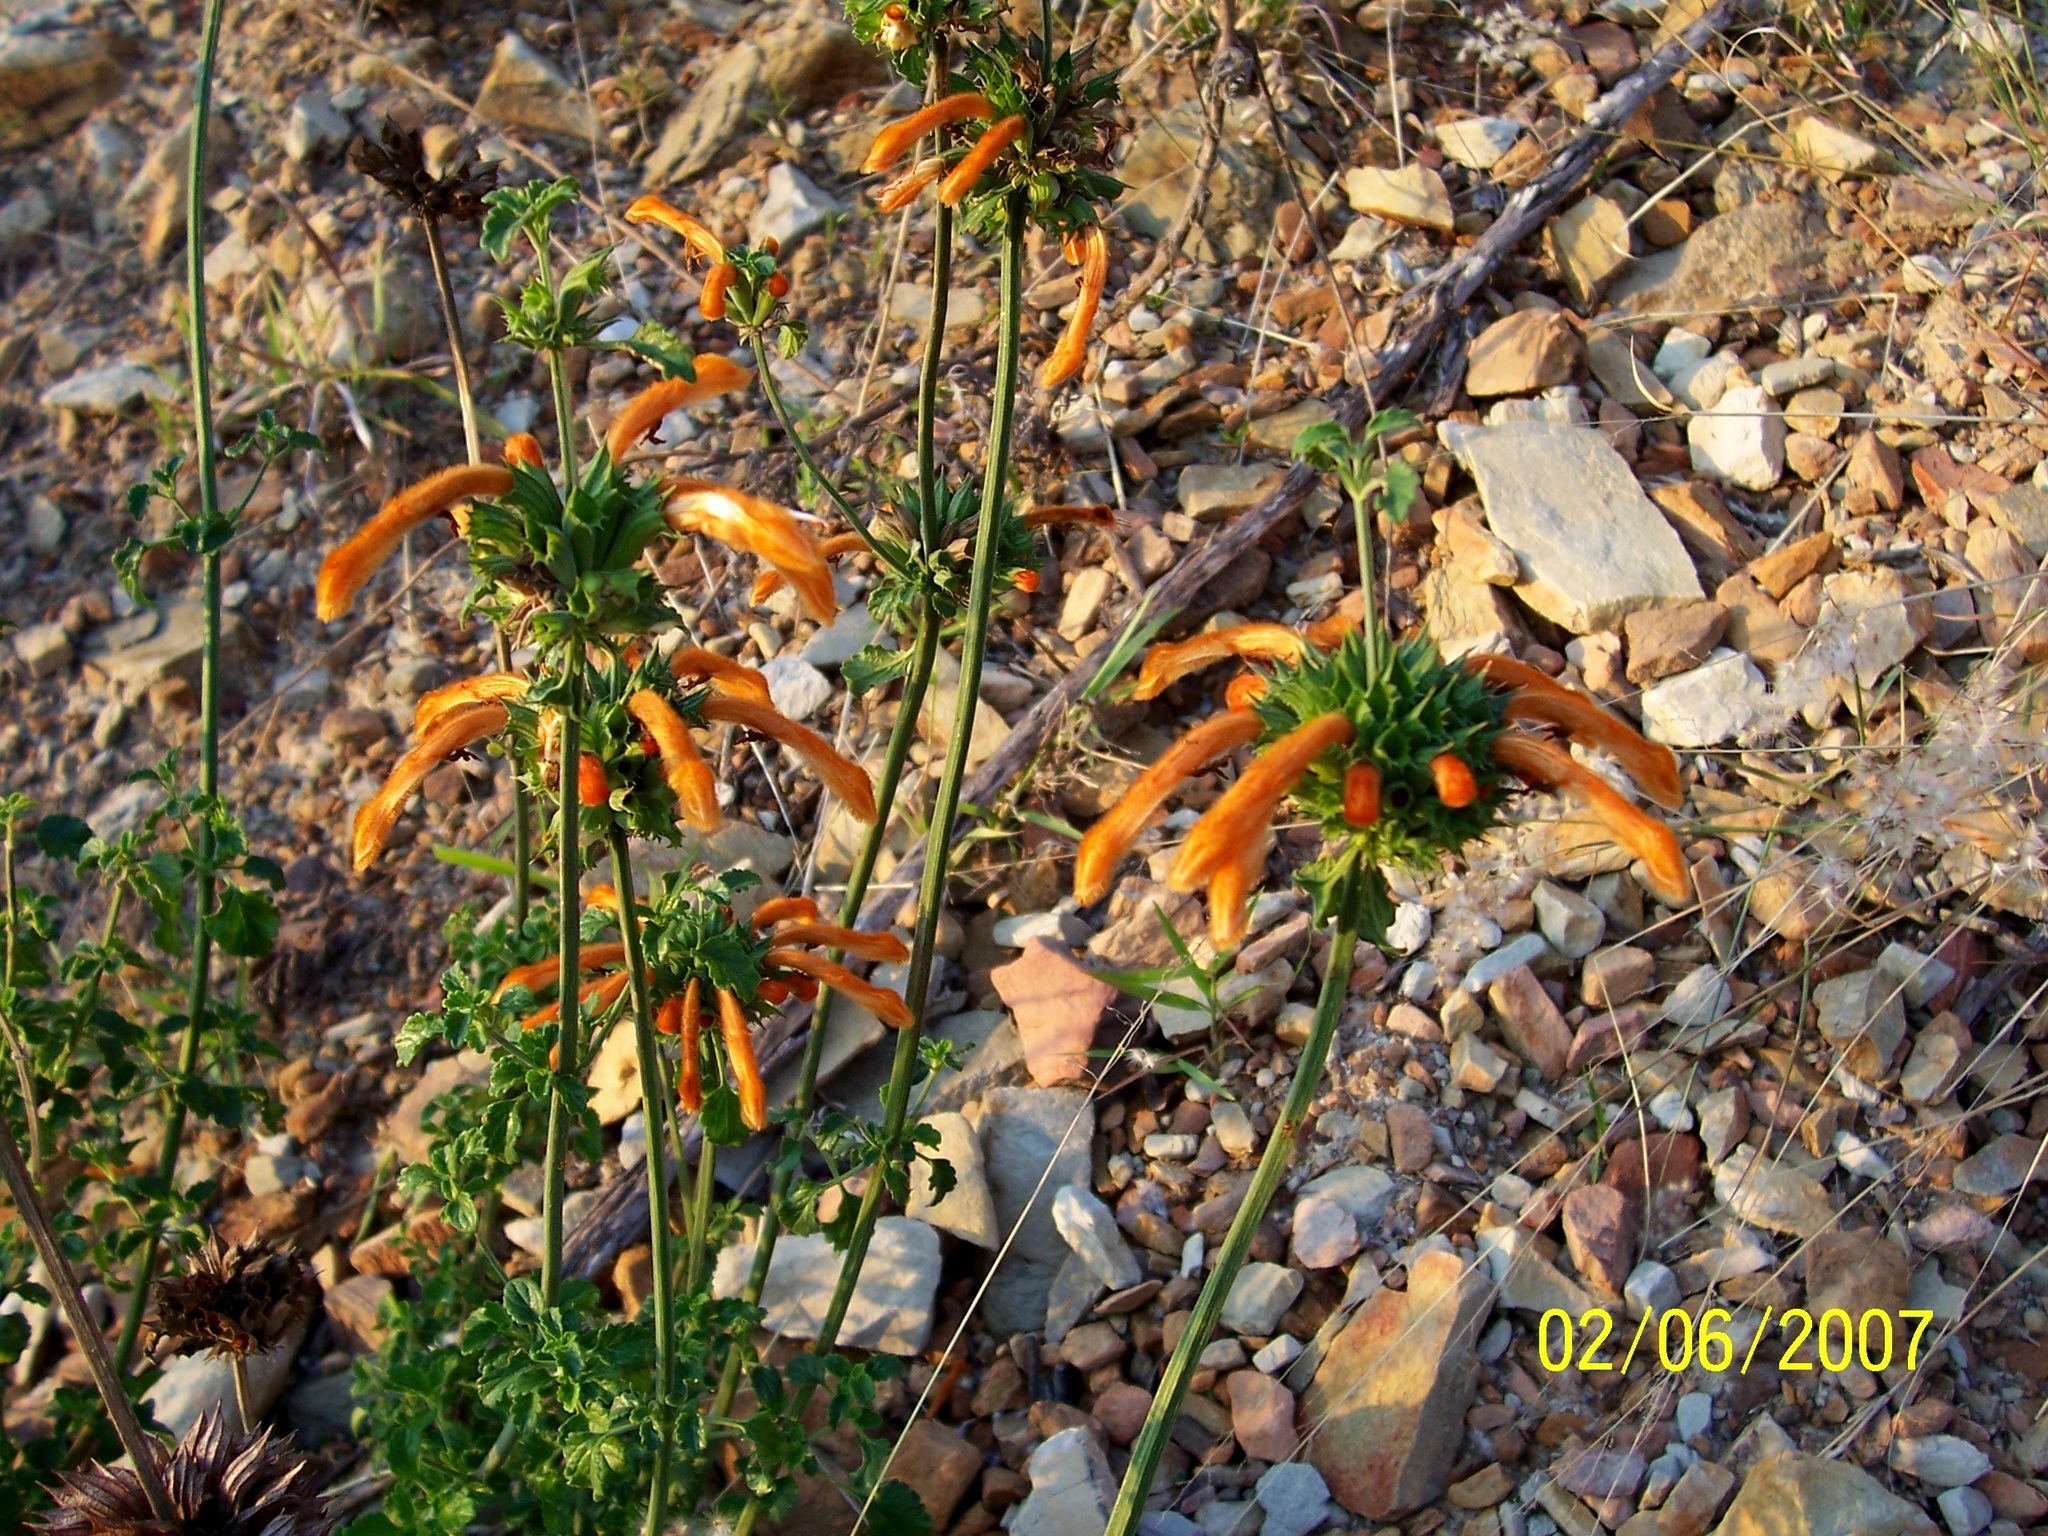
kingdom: Plantae
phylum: Tracheophyta
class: Magnoliopsida
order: Lamiales
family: Lamiaceae
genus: Leonotis
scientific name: Leonotis ocymifolia
